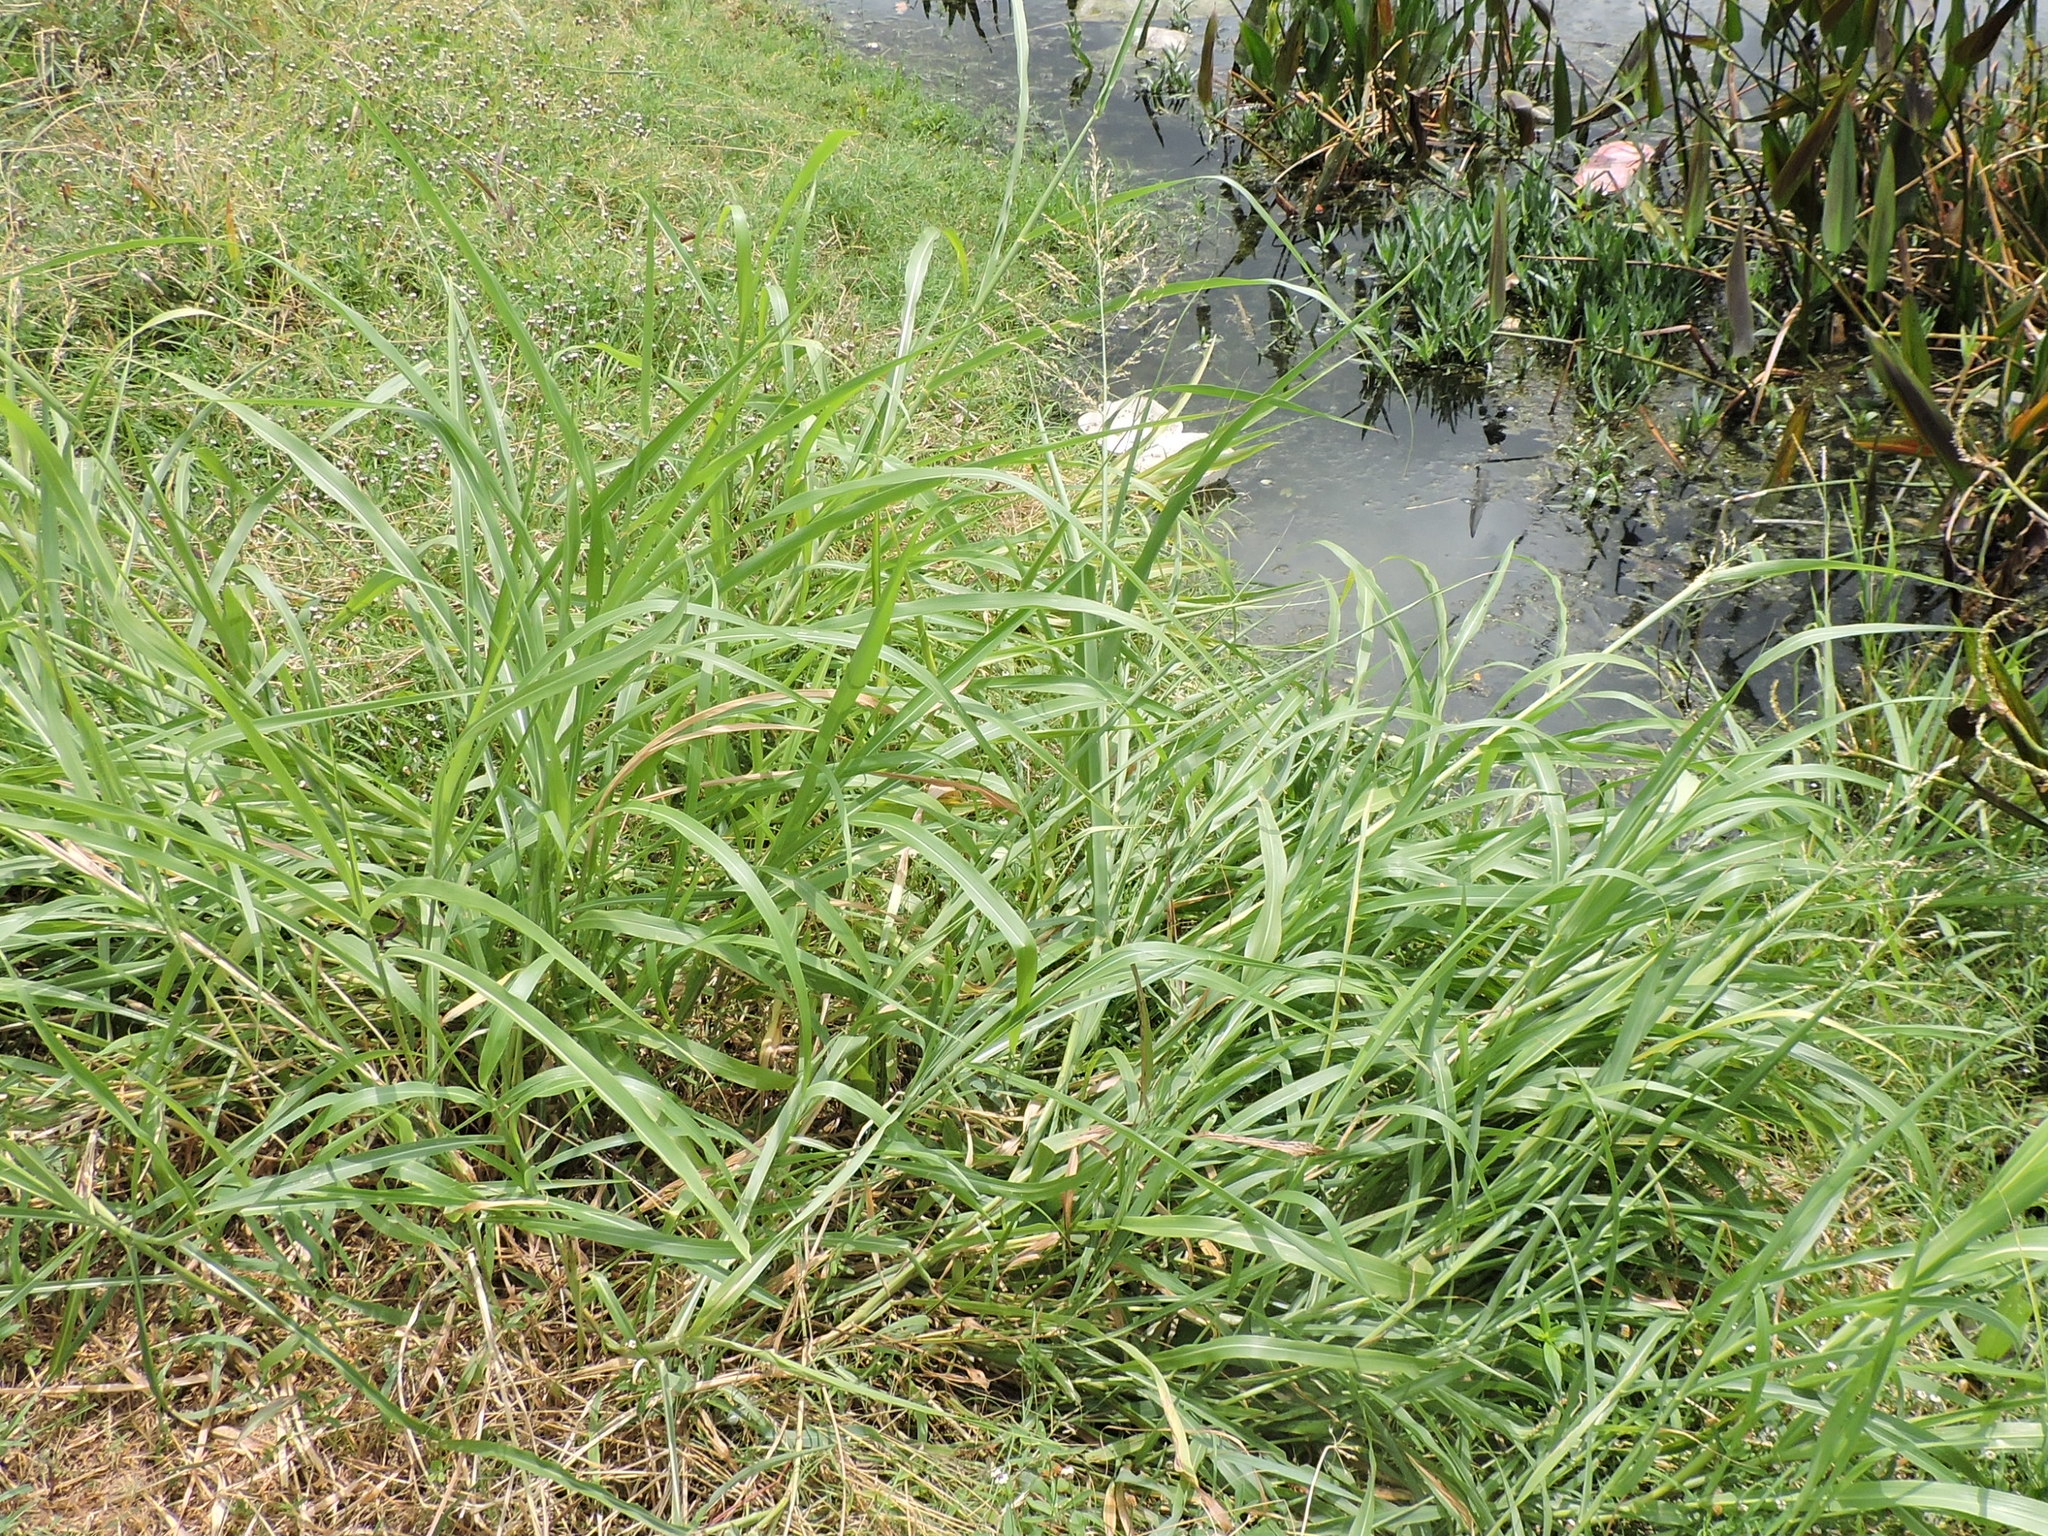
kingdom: Plantae
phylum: Tracheophyta
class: Liliopsida
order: Poales
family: Poaceae
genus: Sorghum
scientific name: Sorghum halepense
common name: Johnson-grass
